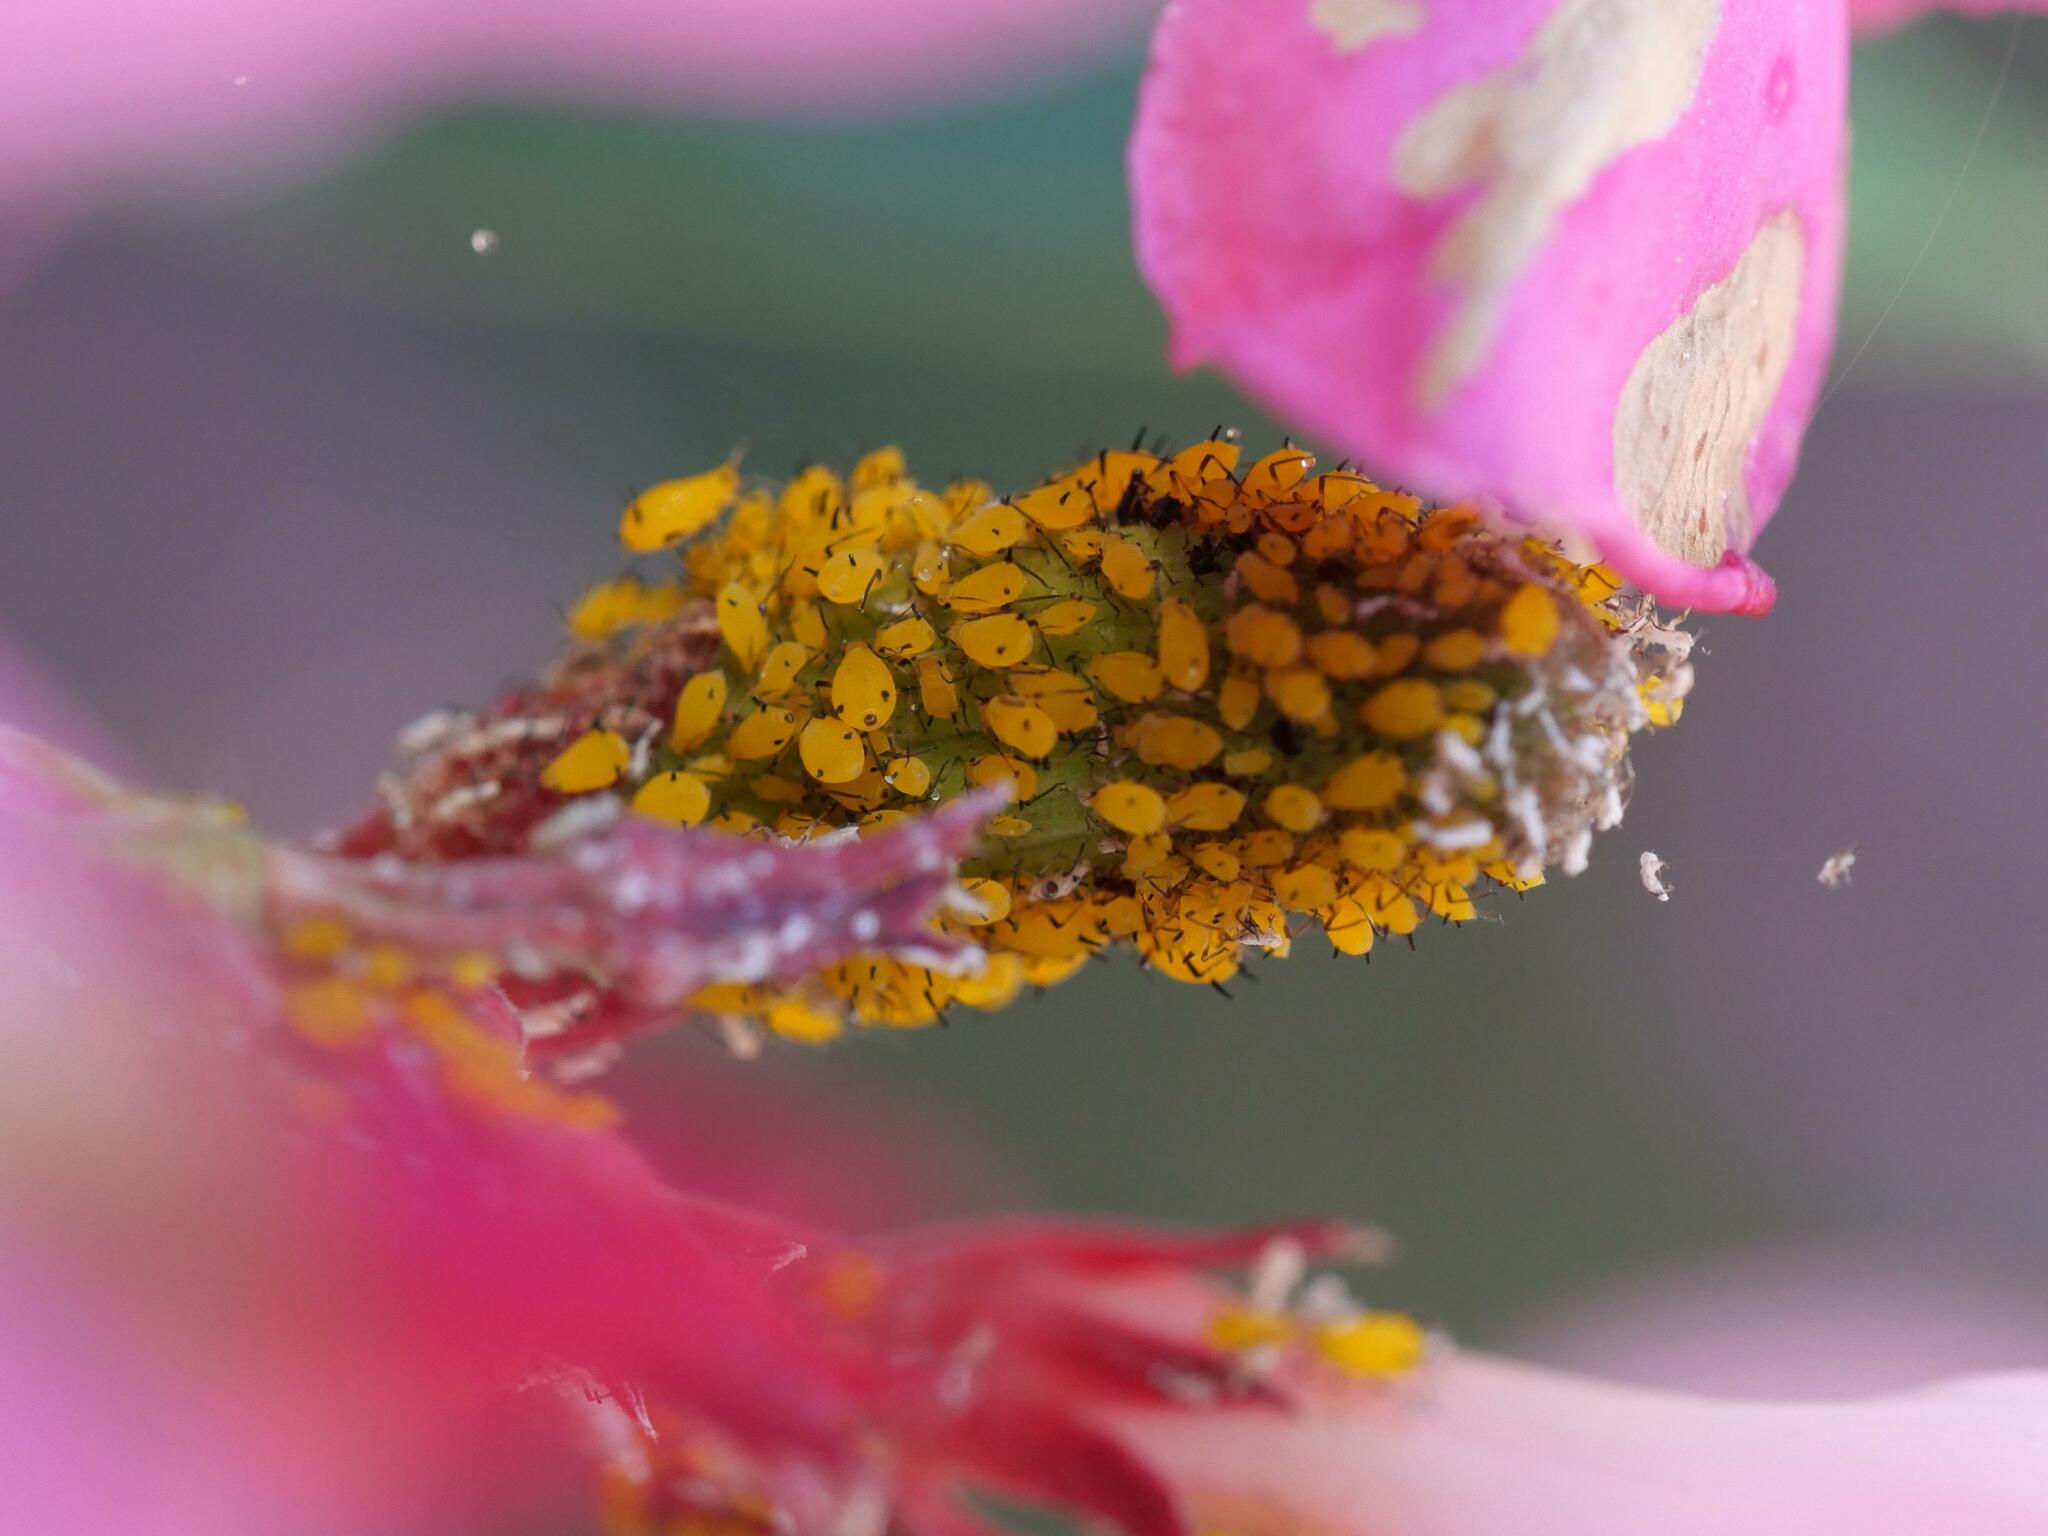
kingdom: Animalia
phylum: Arthropoda
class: Insecta
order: Hemiptera
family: Aphididae
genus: Aphis
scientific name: Aphis nerii
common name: Oleander aphid
